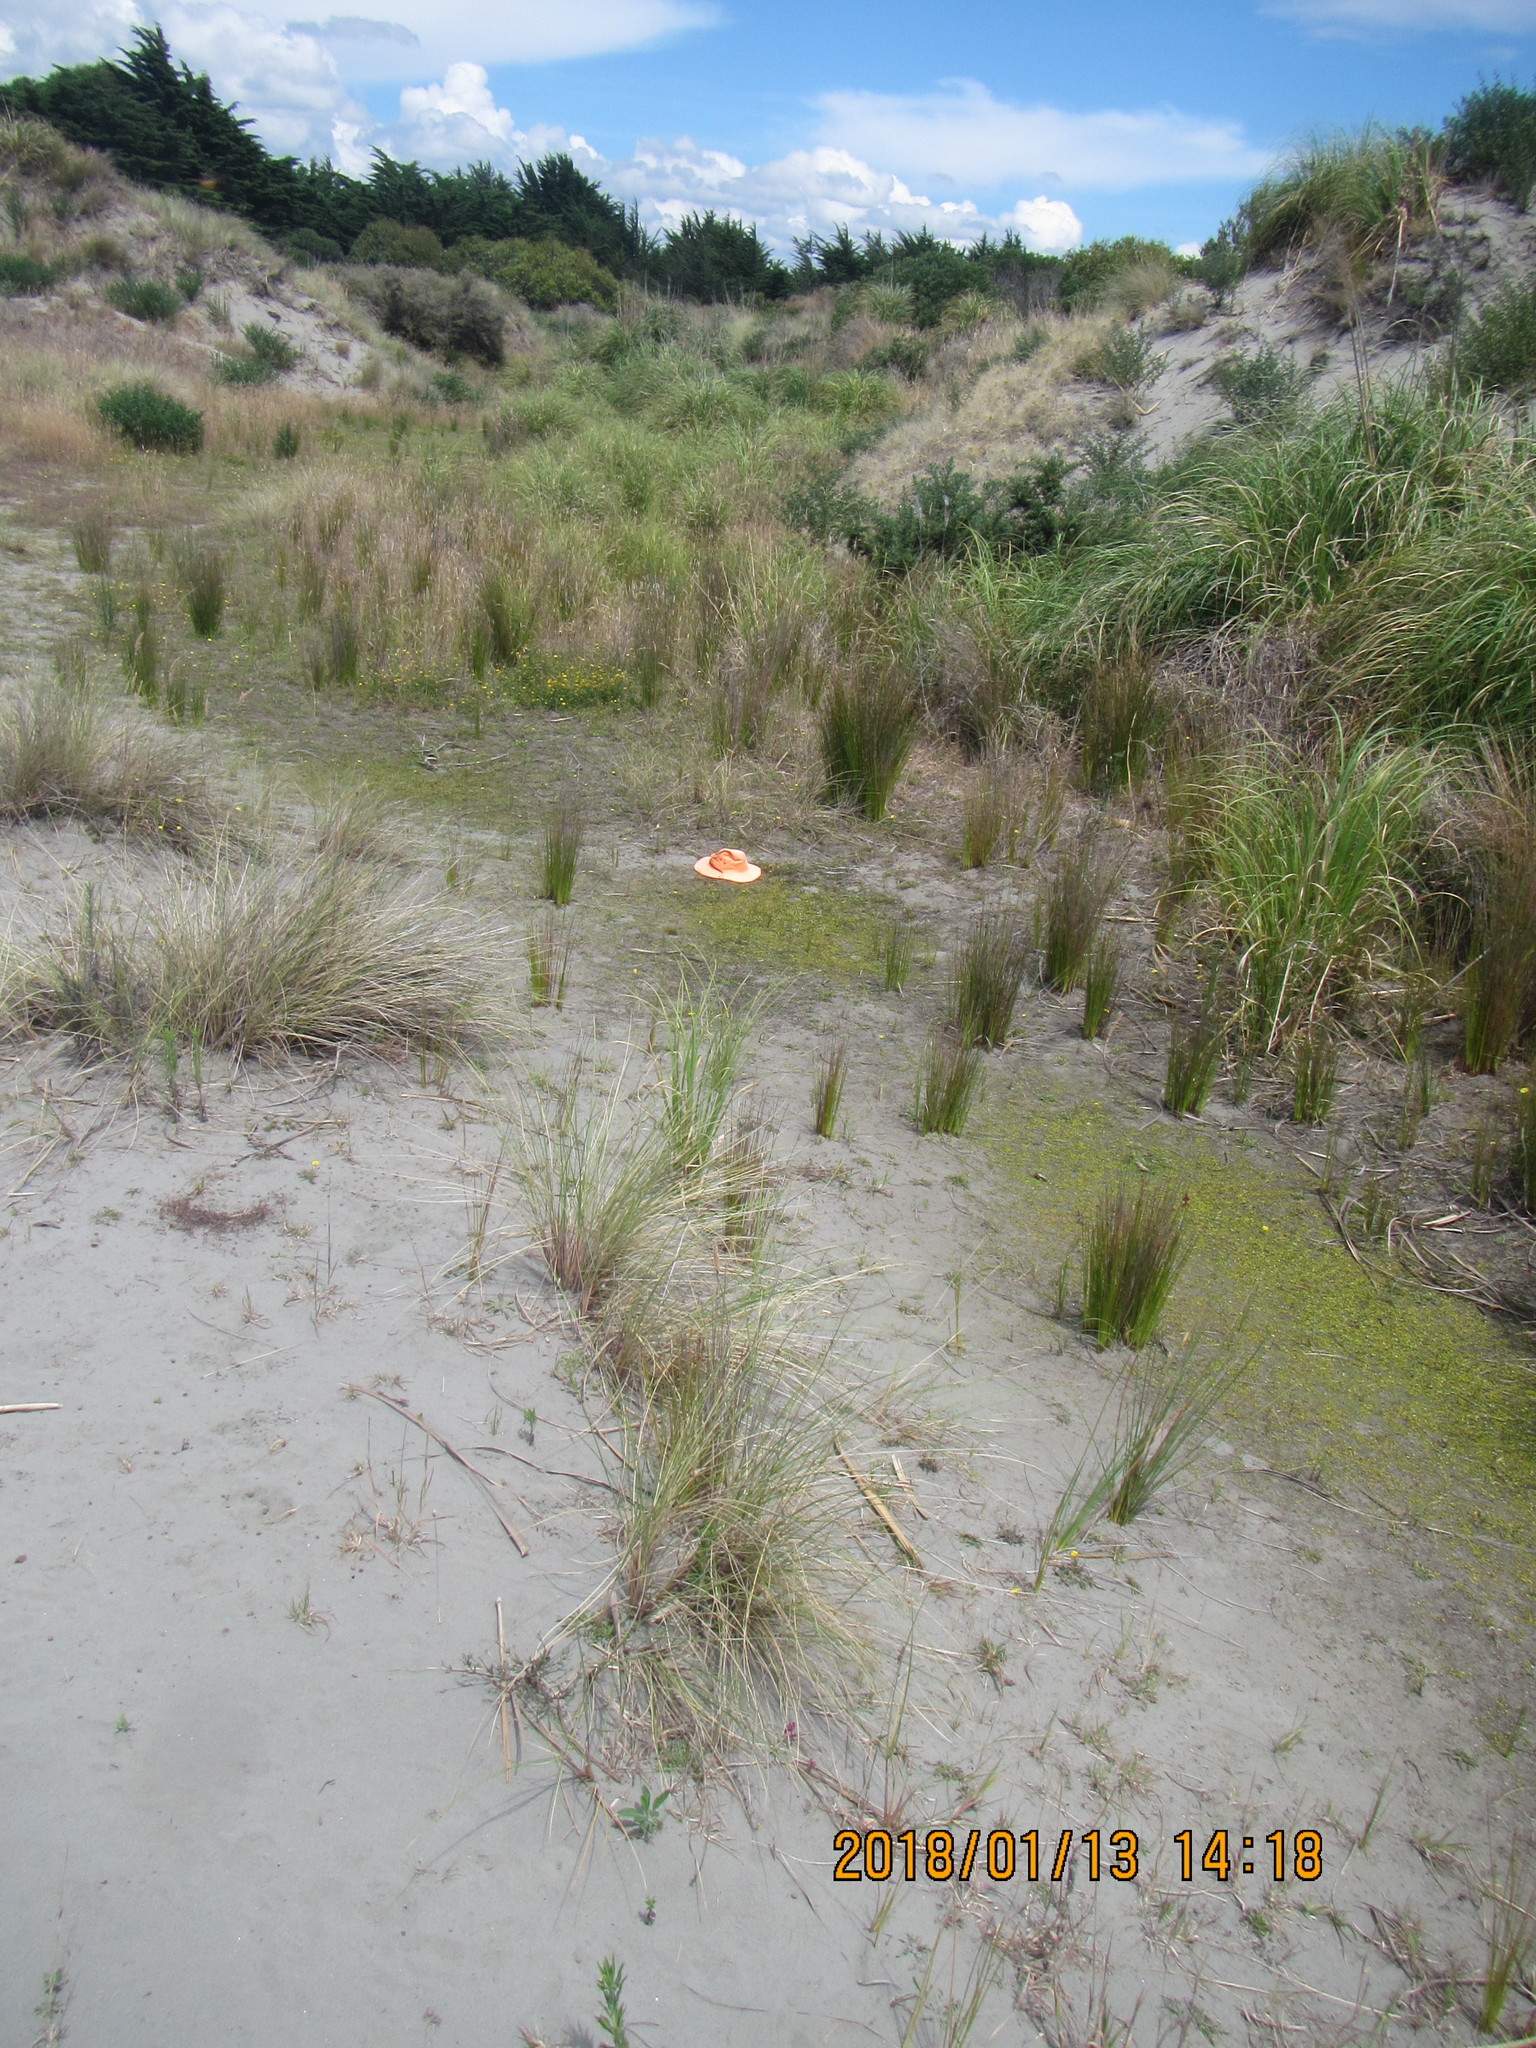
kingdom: Plantae
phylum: Tracheophyta
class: Magnoliopsida
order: Asterales
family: Goodeniaceae
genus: Goodenia
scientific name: Goodenia heenanii
